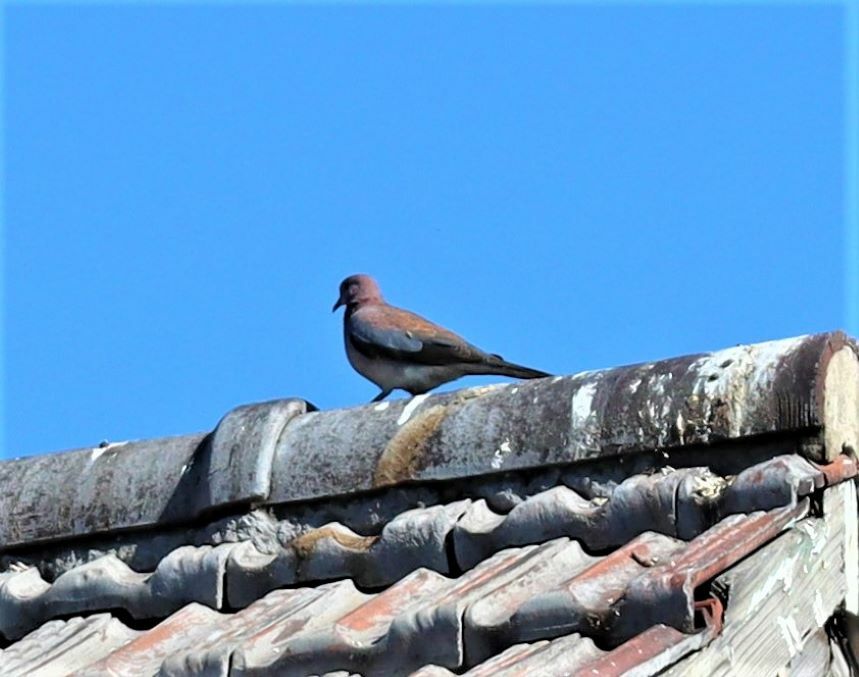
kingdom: Animalia
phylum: Chordata
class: Aves
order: Columbiformes
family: Columbidae
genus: Spilopelia
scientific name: Spilopelia senegalensis
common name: Laughing dove
